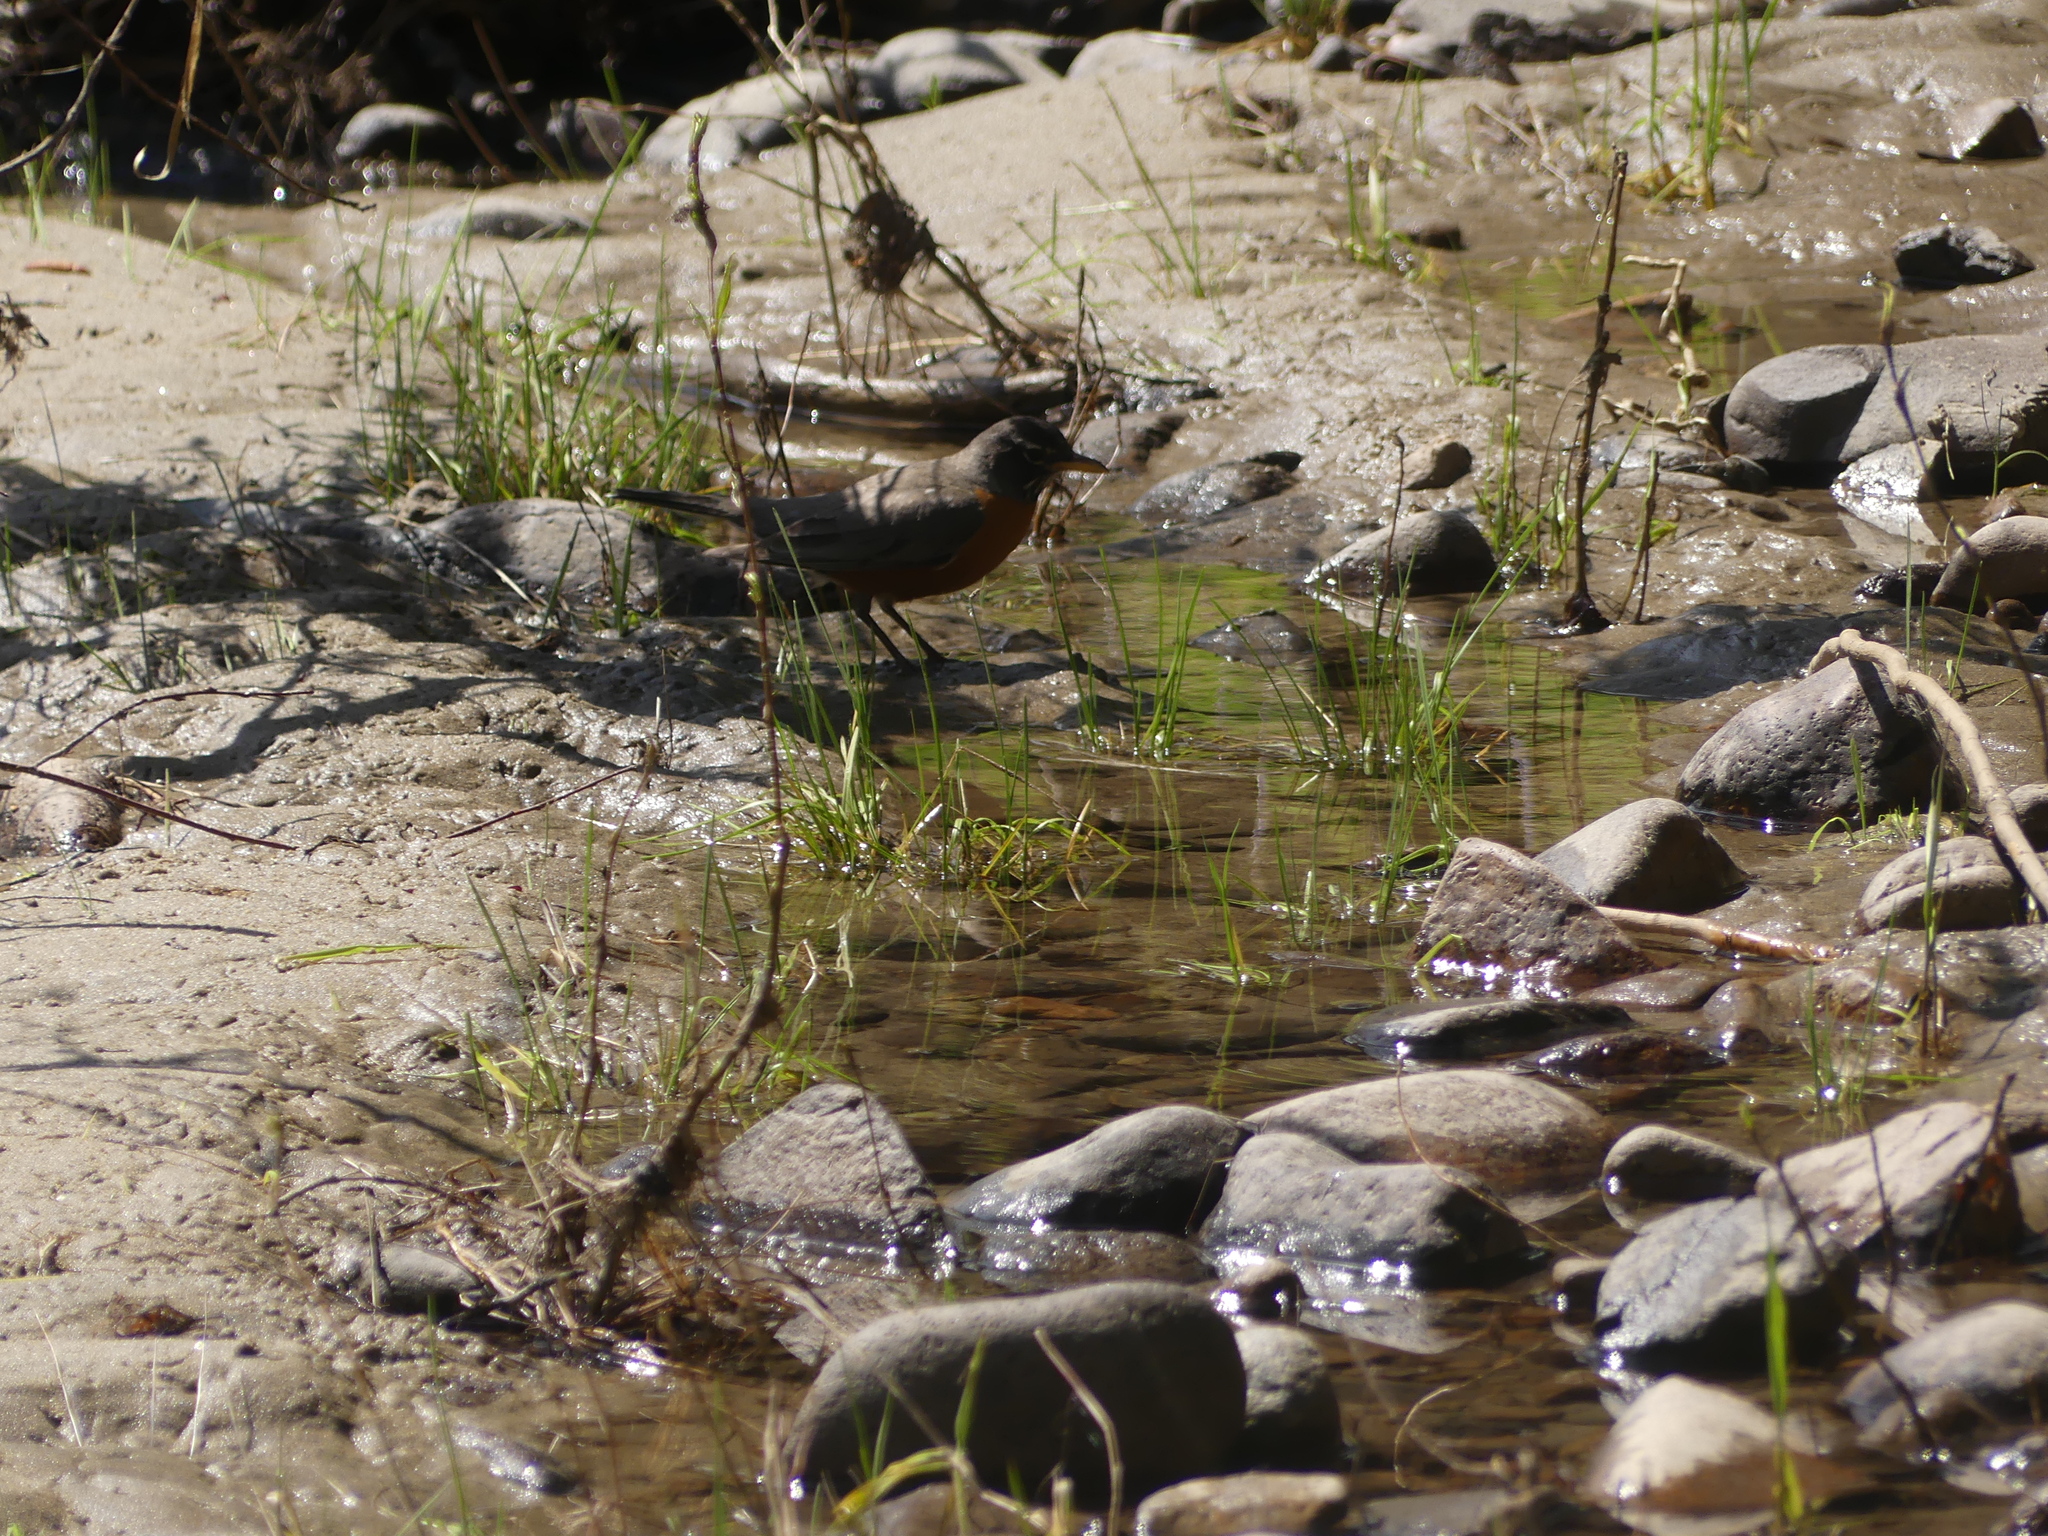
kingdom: Animalia
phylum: Chordata
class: Aves
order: Passeriformes
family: Turdidae
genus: Turdus
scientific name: Turdus migratorius
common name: American robin
